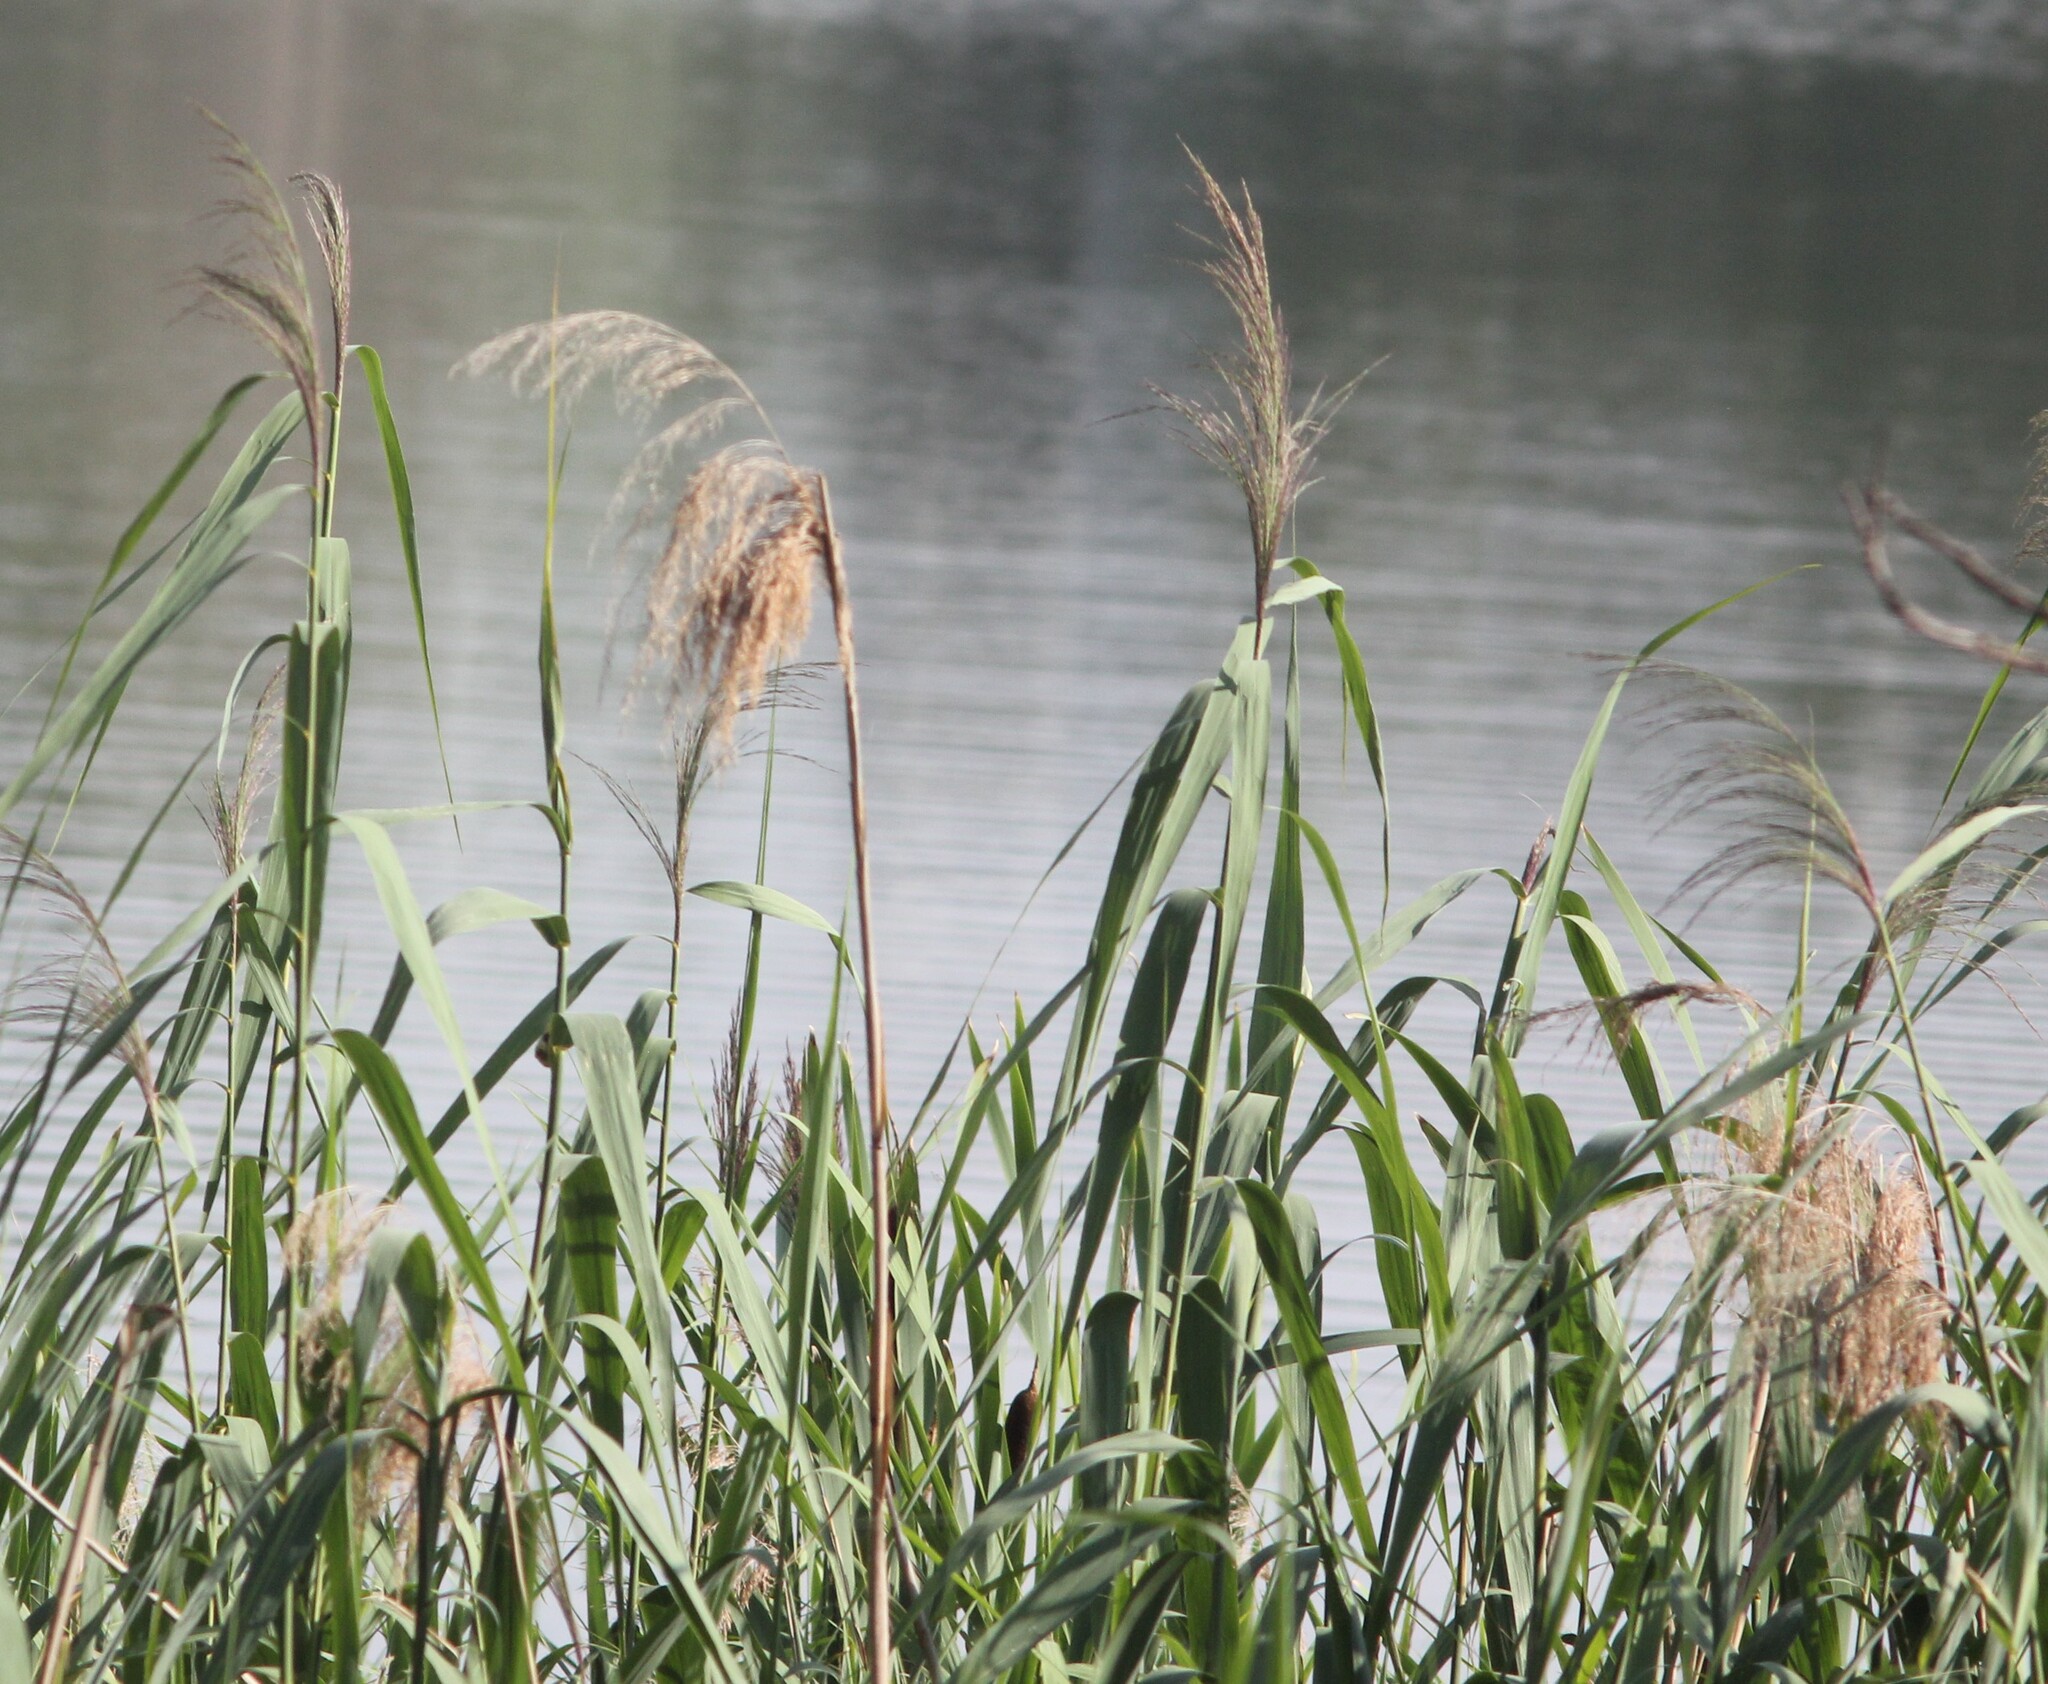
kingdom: Plantae
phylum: Tracheophyta
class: Liliopsida
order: Poales
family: Poaceae
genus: Phragmites
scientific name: Phragmites australis
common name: Common reed
